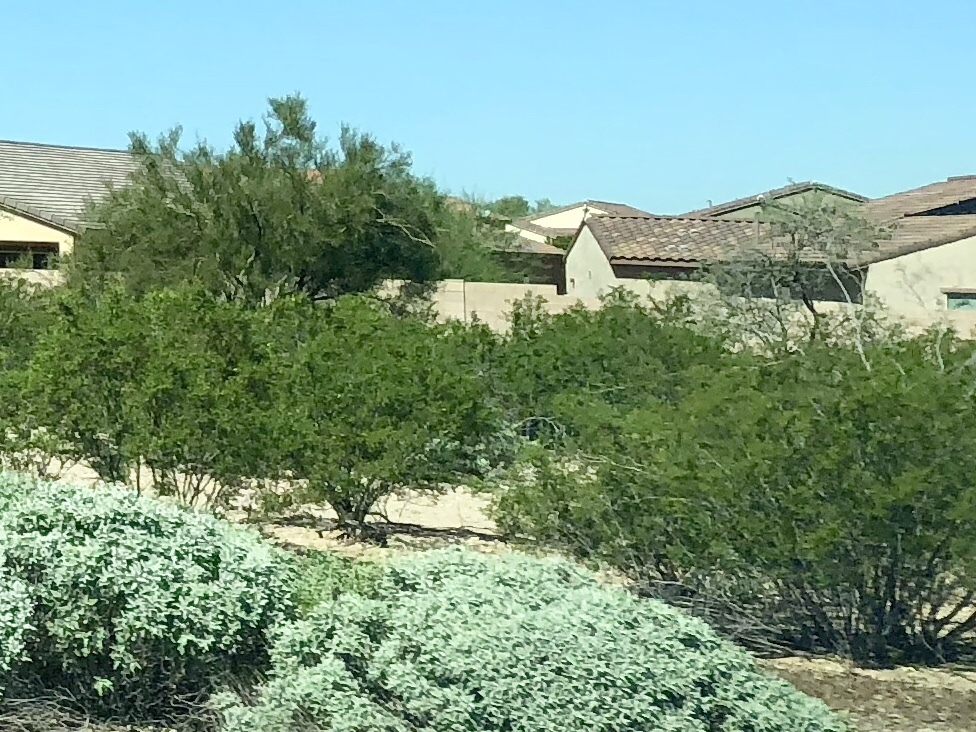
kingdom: Plantae
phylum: Tracheophyta
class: Magnoliopsida
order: Zygophyllales
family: Zygophyllaceae
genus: Larrea
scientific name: Larrea tridentata
